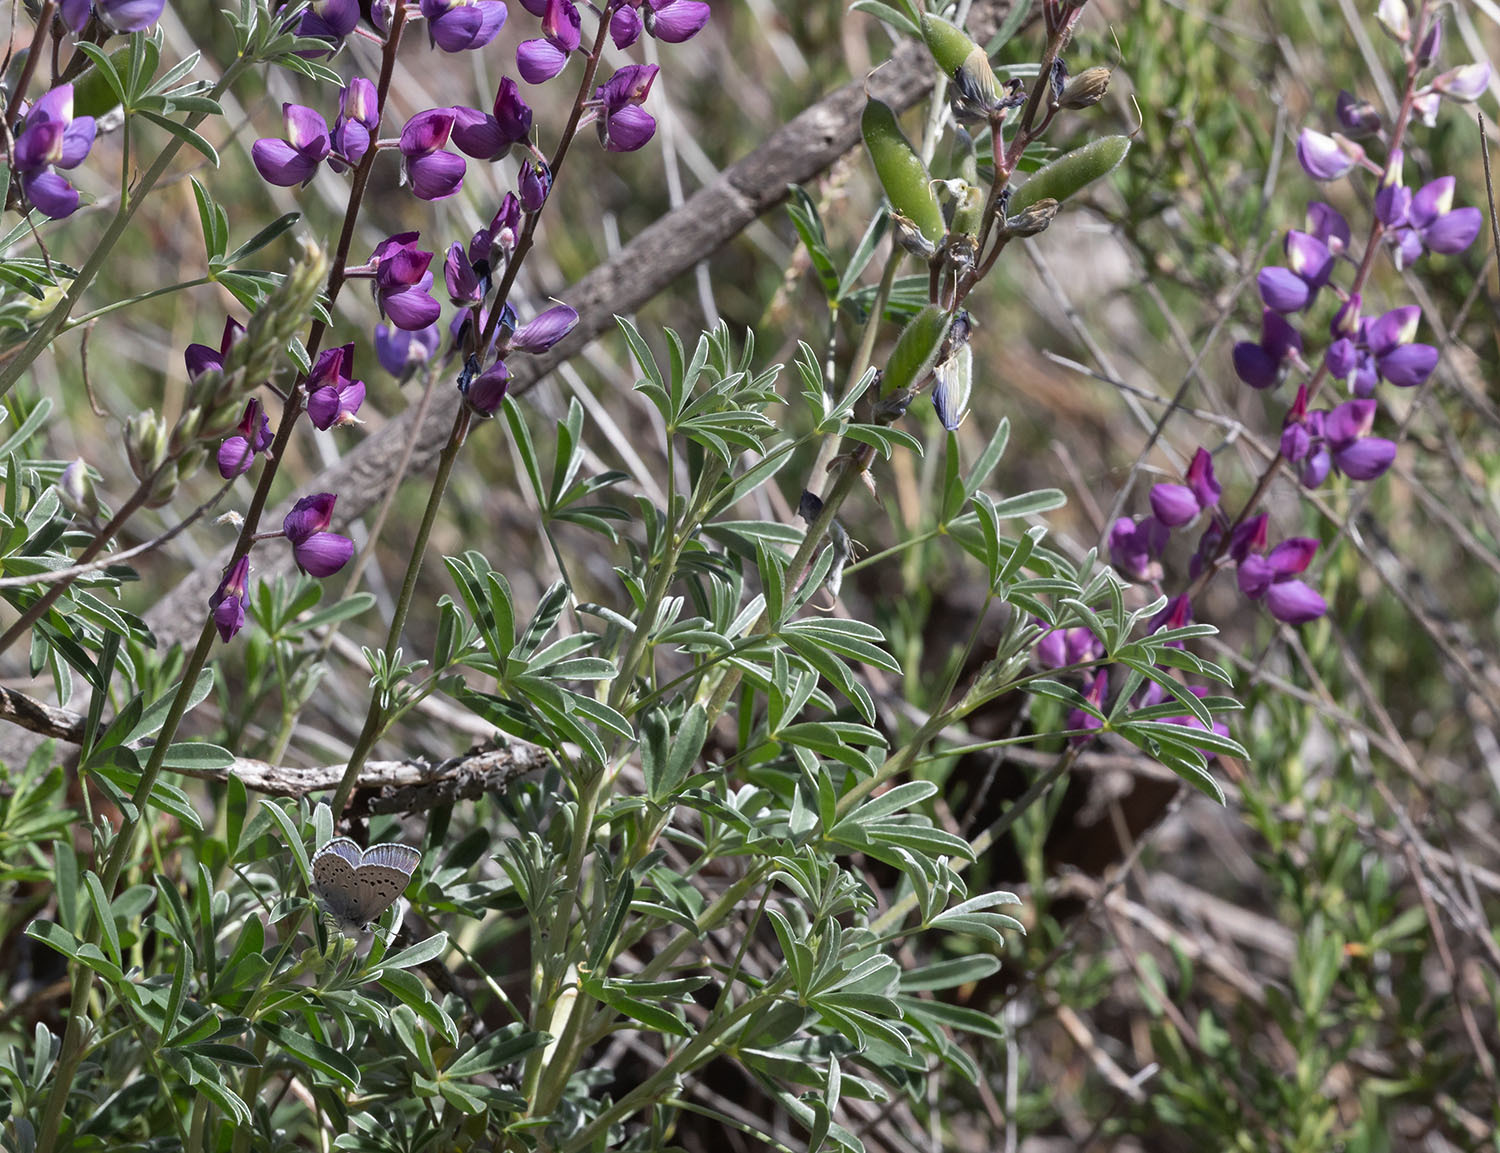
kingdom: Animalia
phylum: Arthropoda
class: Insecta
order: Lepidoptera
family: Lycaenidae
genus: Icaricia
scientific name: Icaricia icarioides
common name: Boisduval's blue
